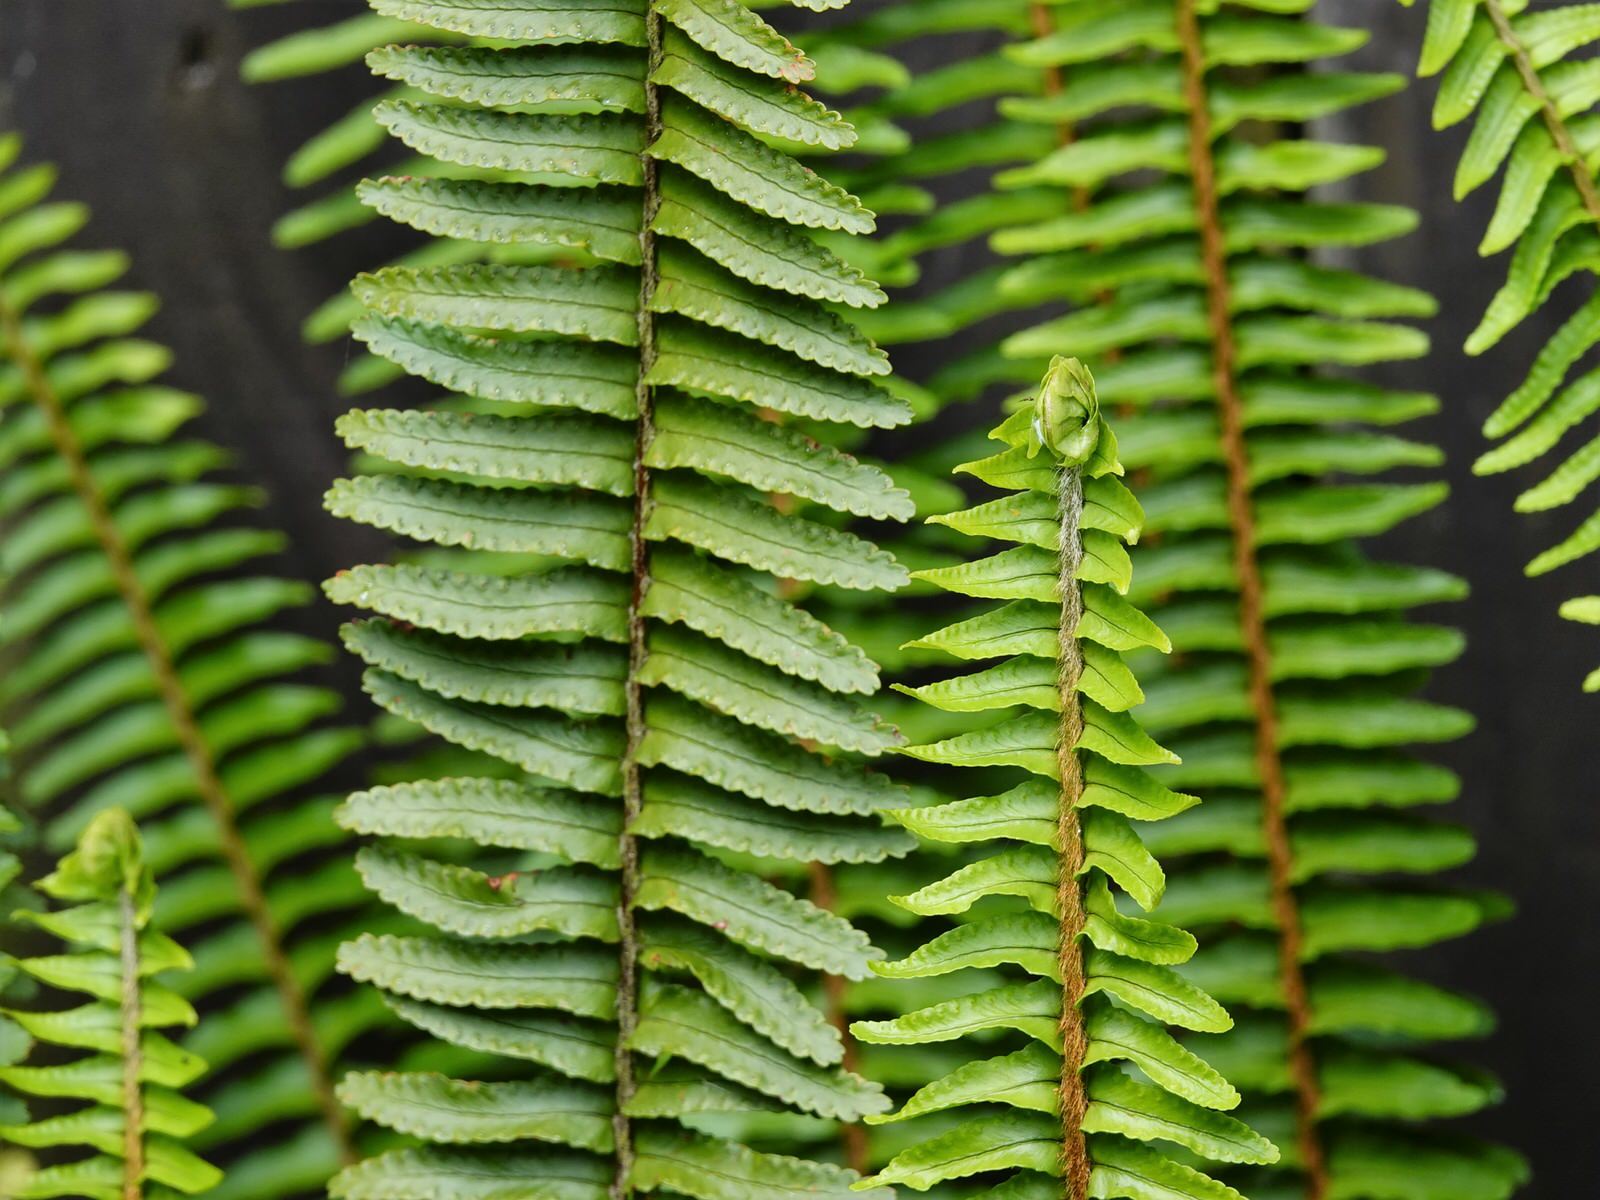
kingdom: Plantae
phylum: Tracheophyta
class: Polypodiopsida
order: Polypodiales
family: Nephrolepidaceae
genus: Nephrolepis
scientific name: Nephrolepis cordifolia
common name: Narrow swordfern
